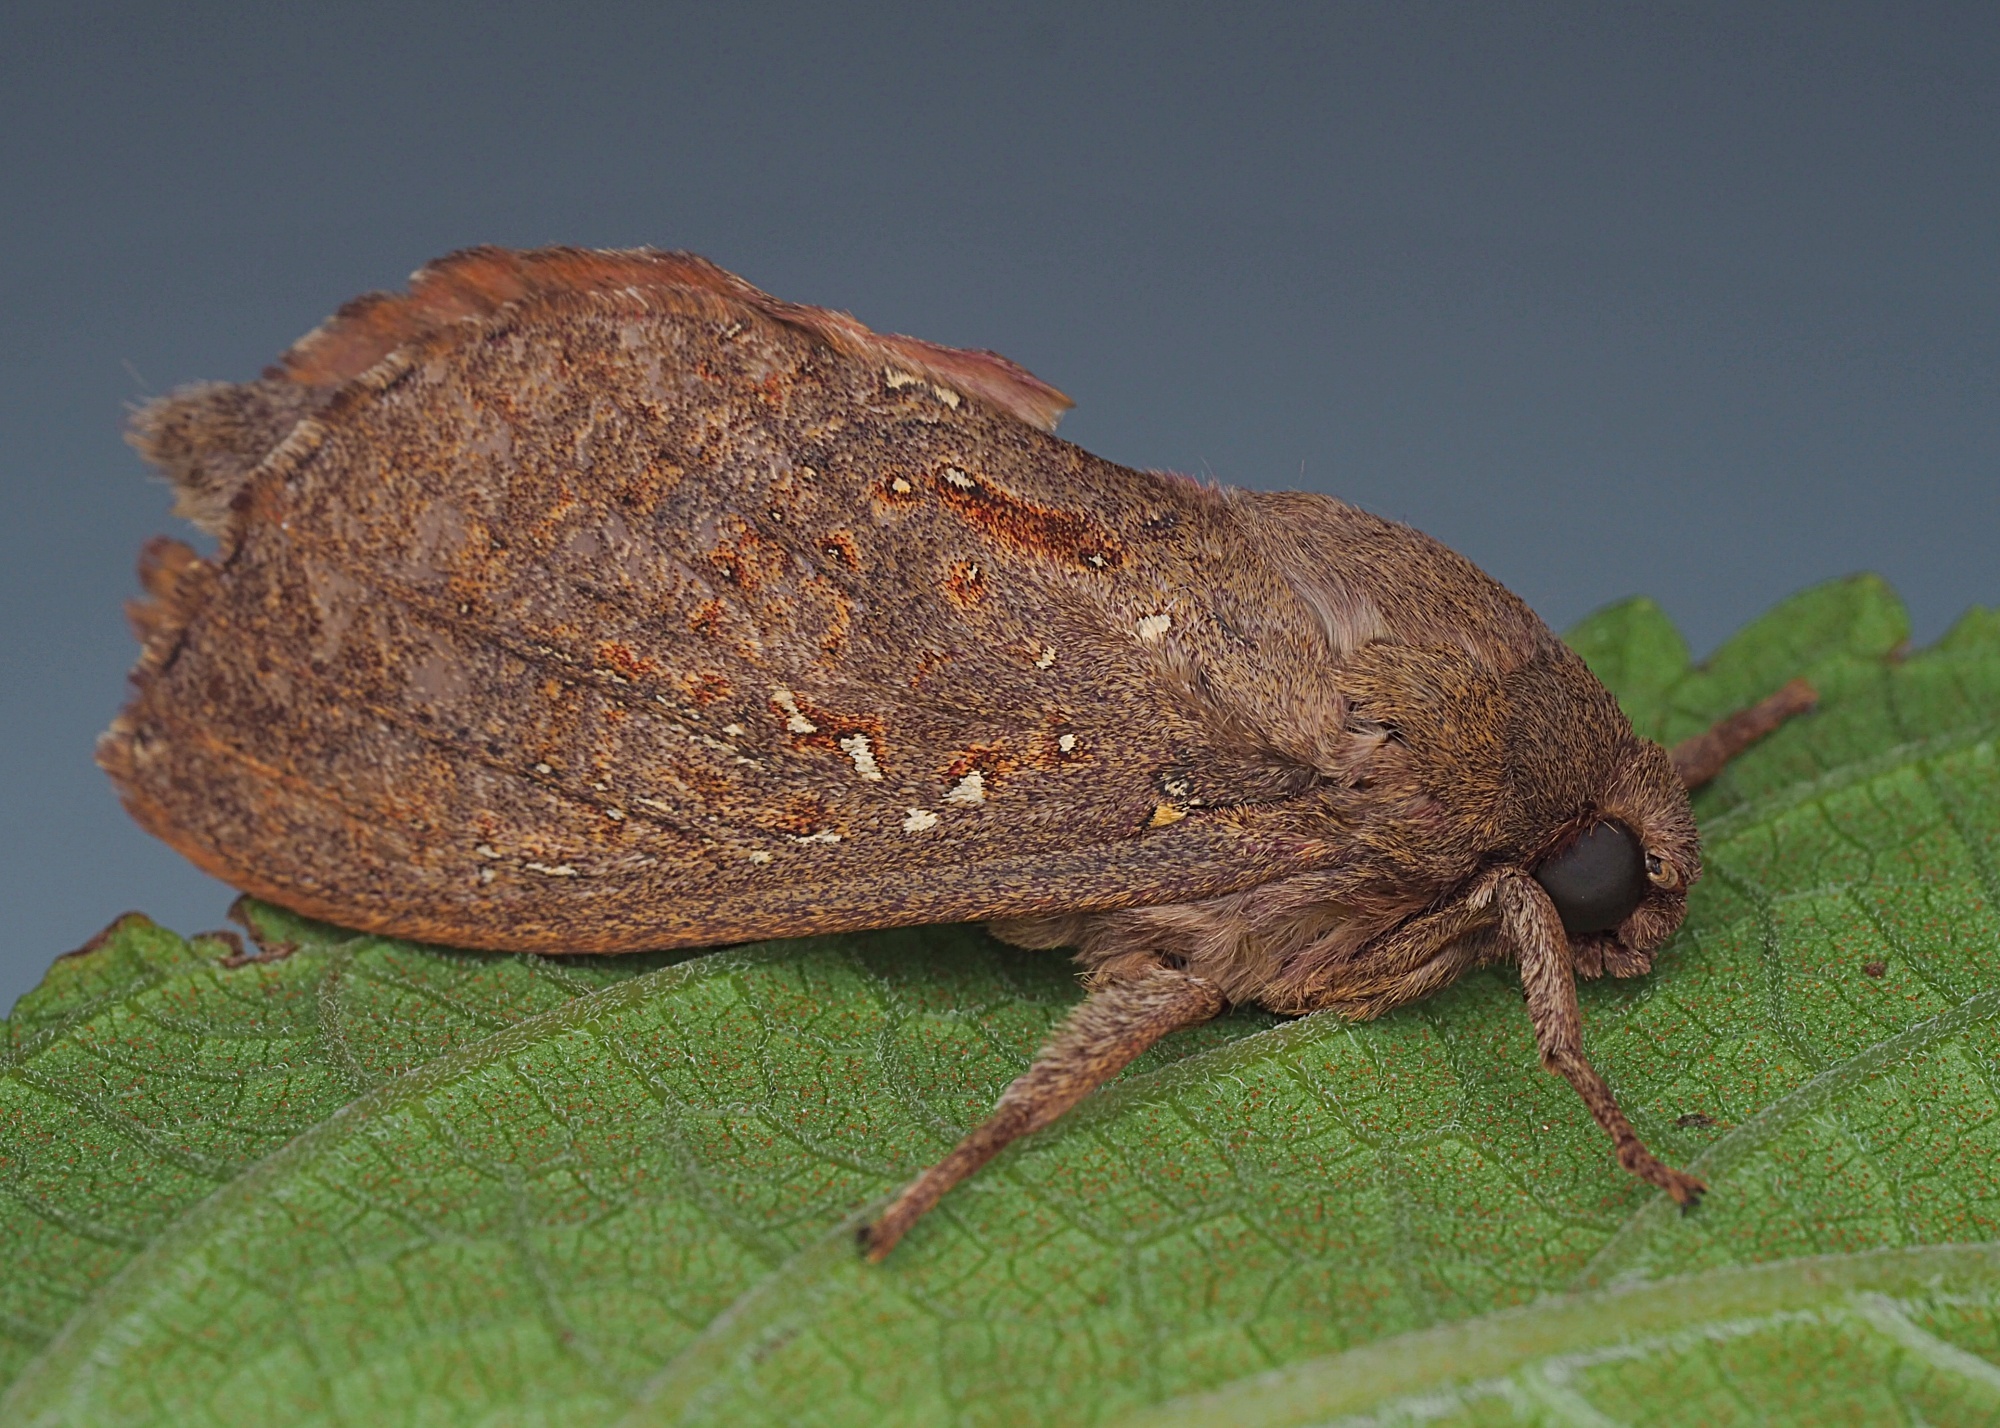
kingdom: Animalia
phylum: Arthropoda
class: Insecta
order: Lepidoptera
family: Hepialidae
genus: Dumbletonius
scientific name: Dumbletonius unimaculata
